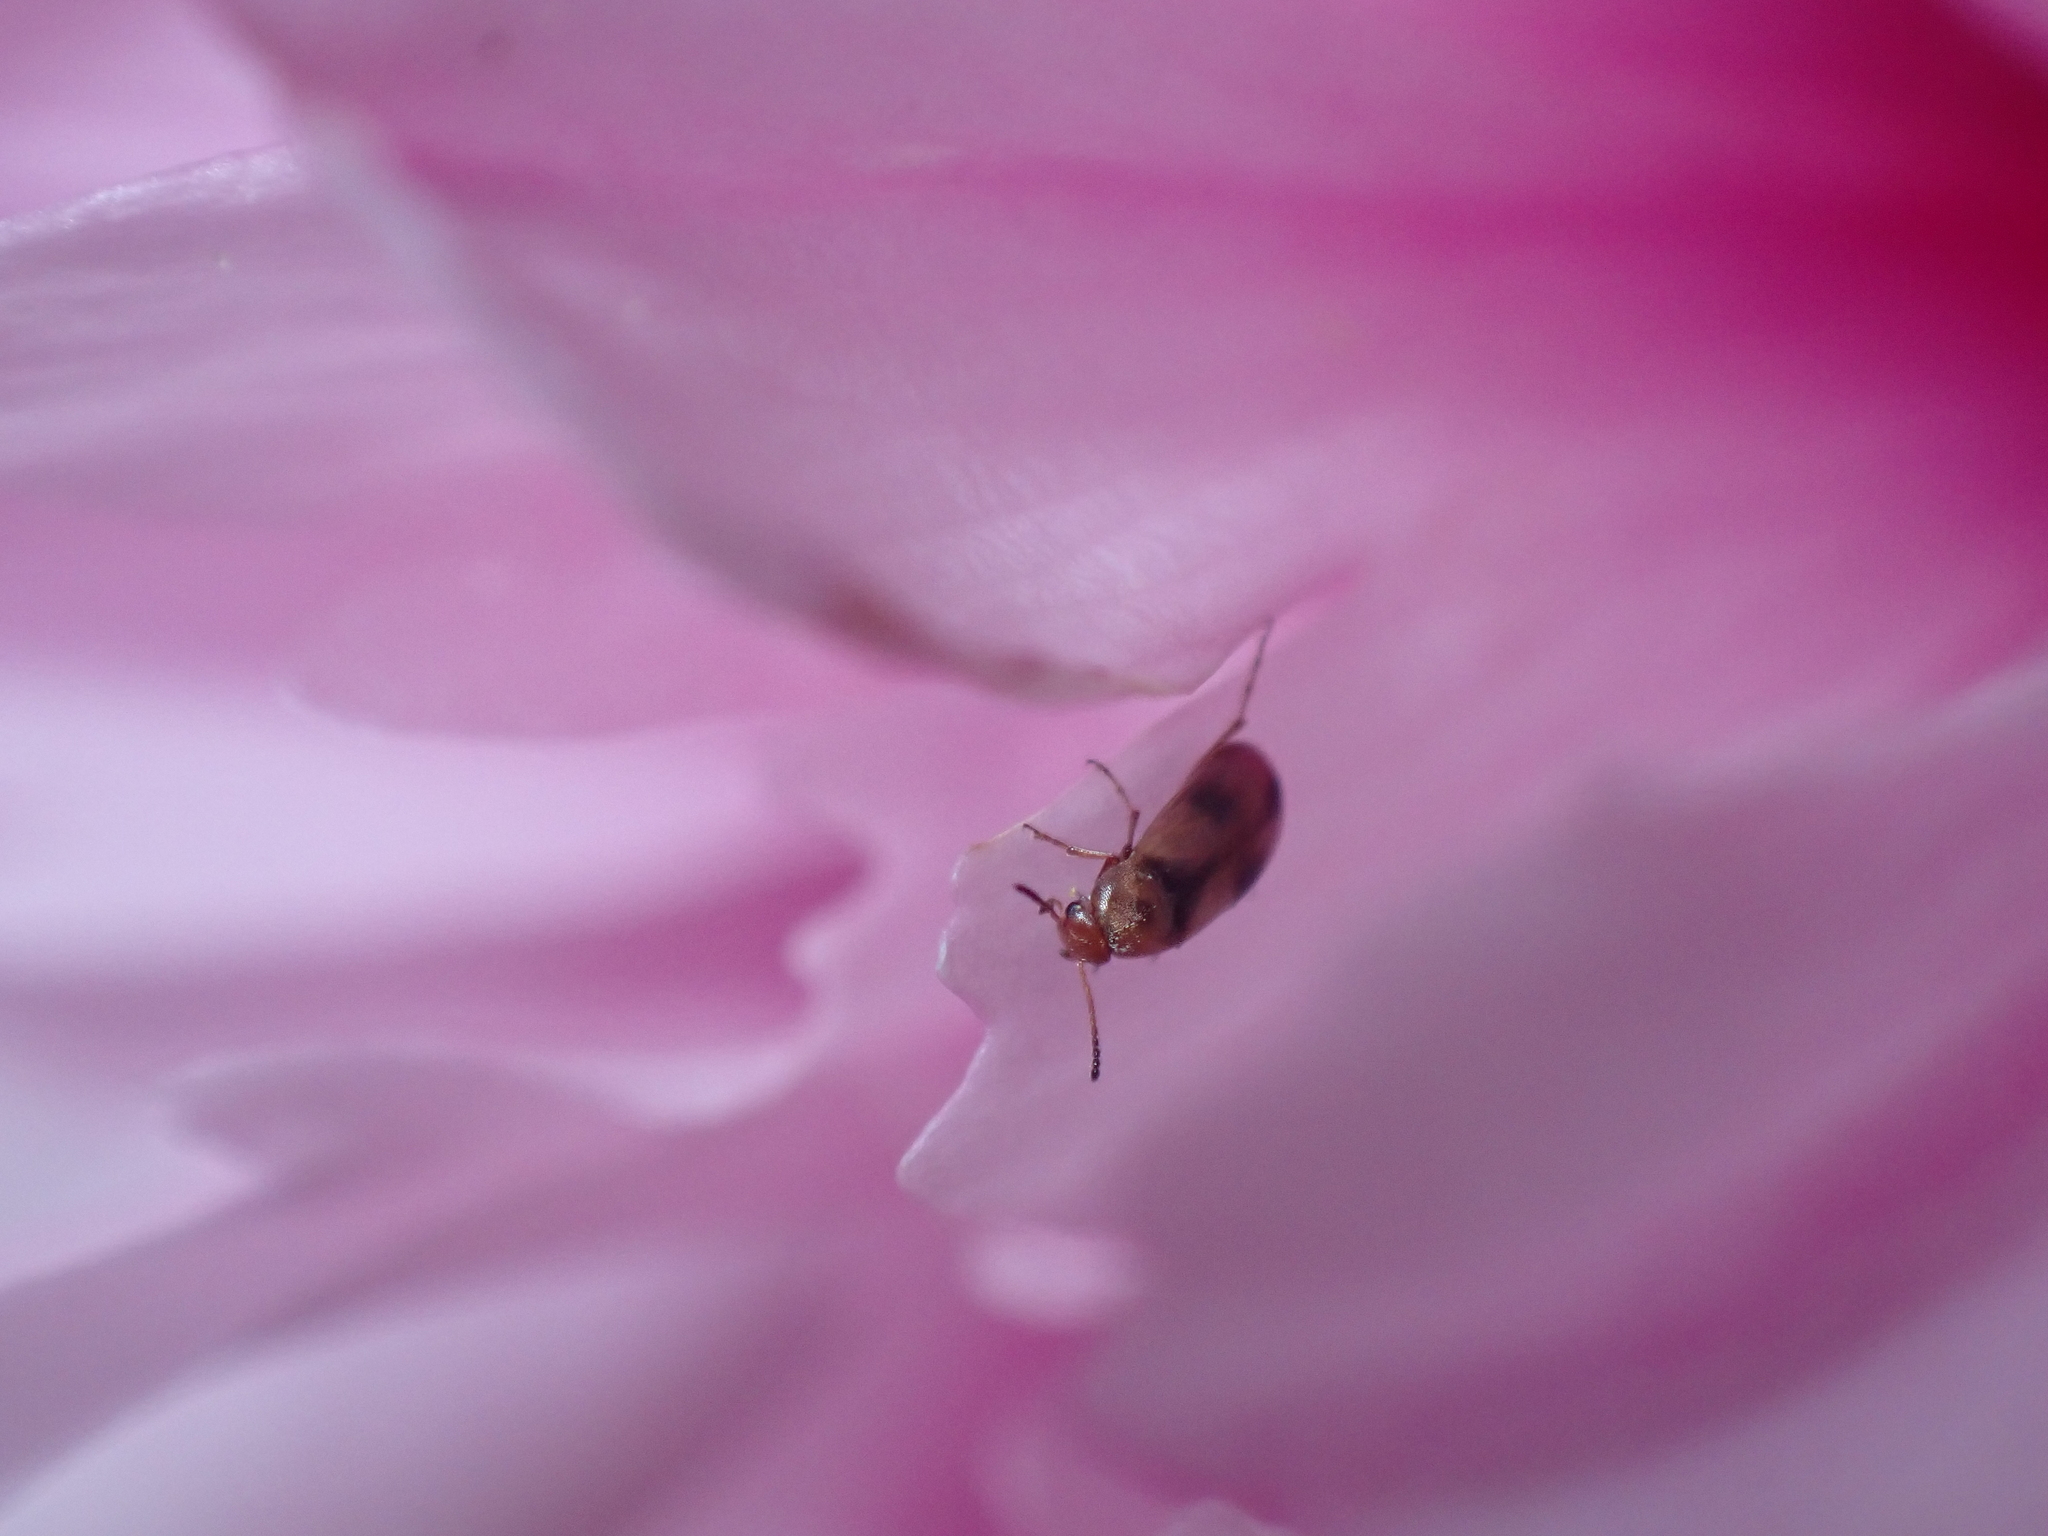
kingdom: Animalia
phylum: Arthropoda
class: Insecta
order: Coleoptera
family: Scraptiidae
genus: Anaspis
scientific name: Anaspis maculata
